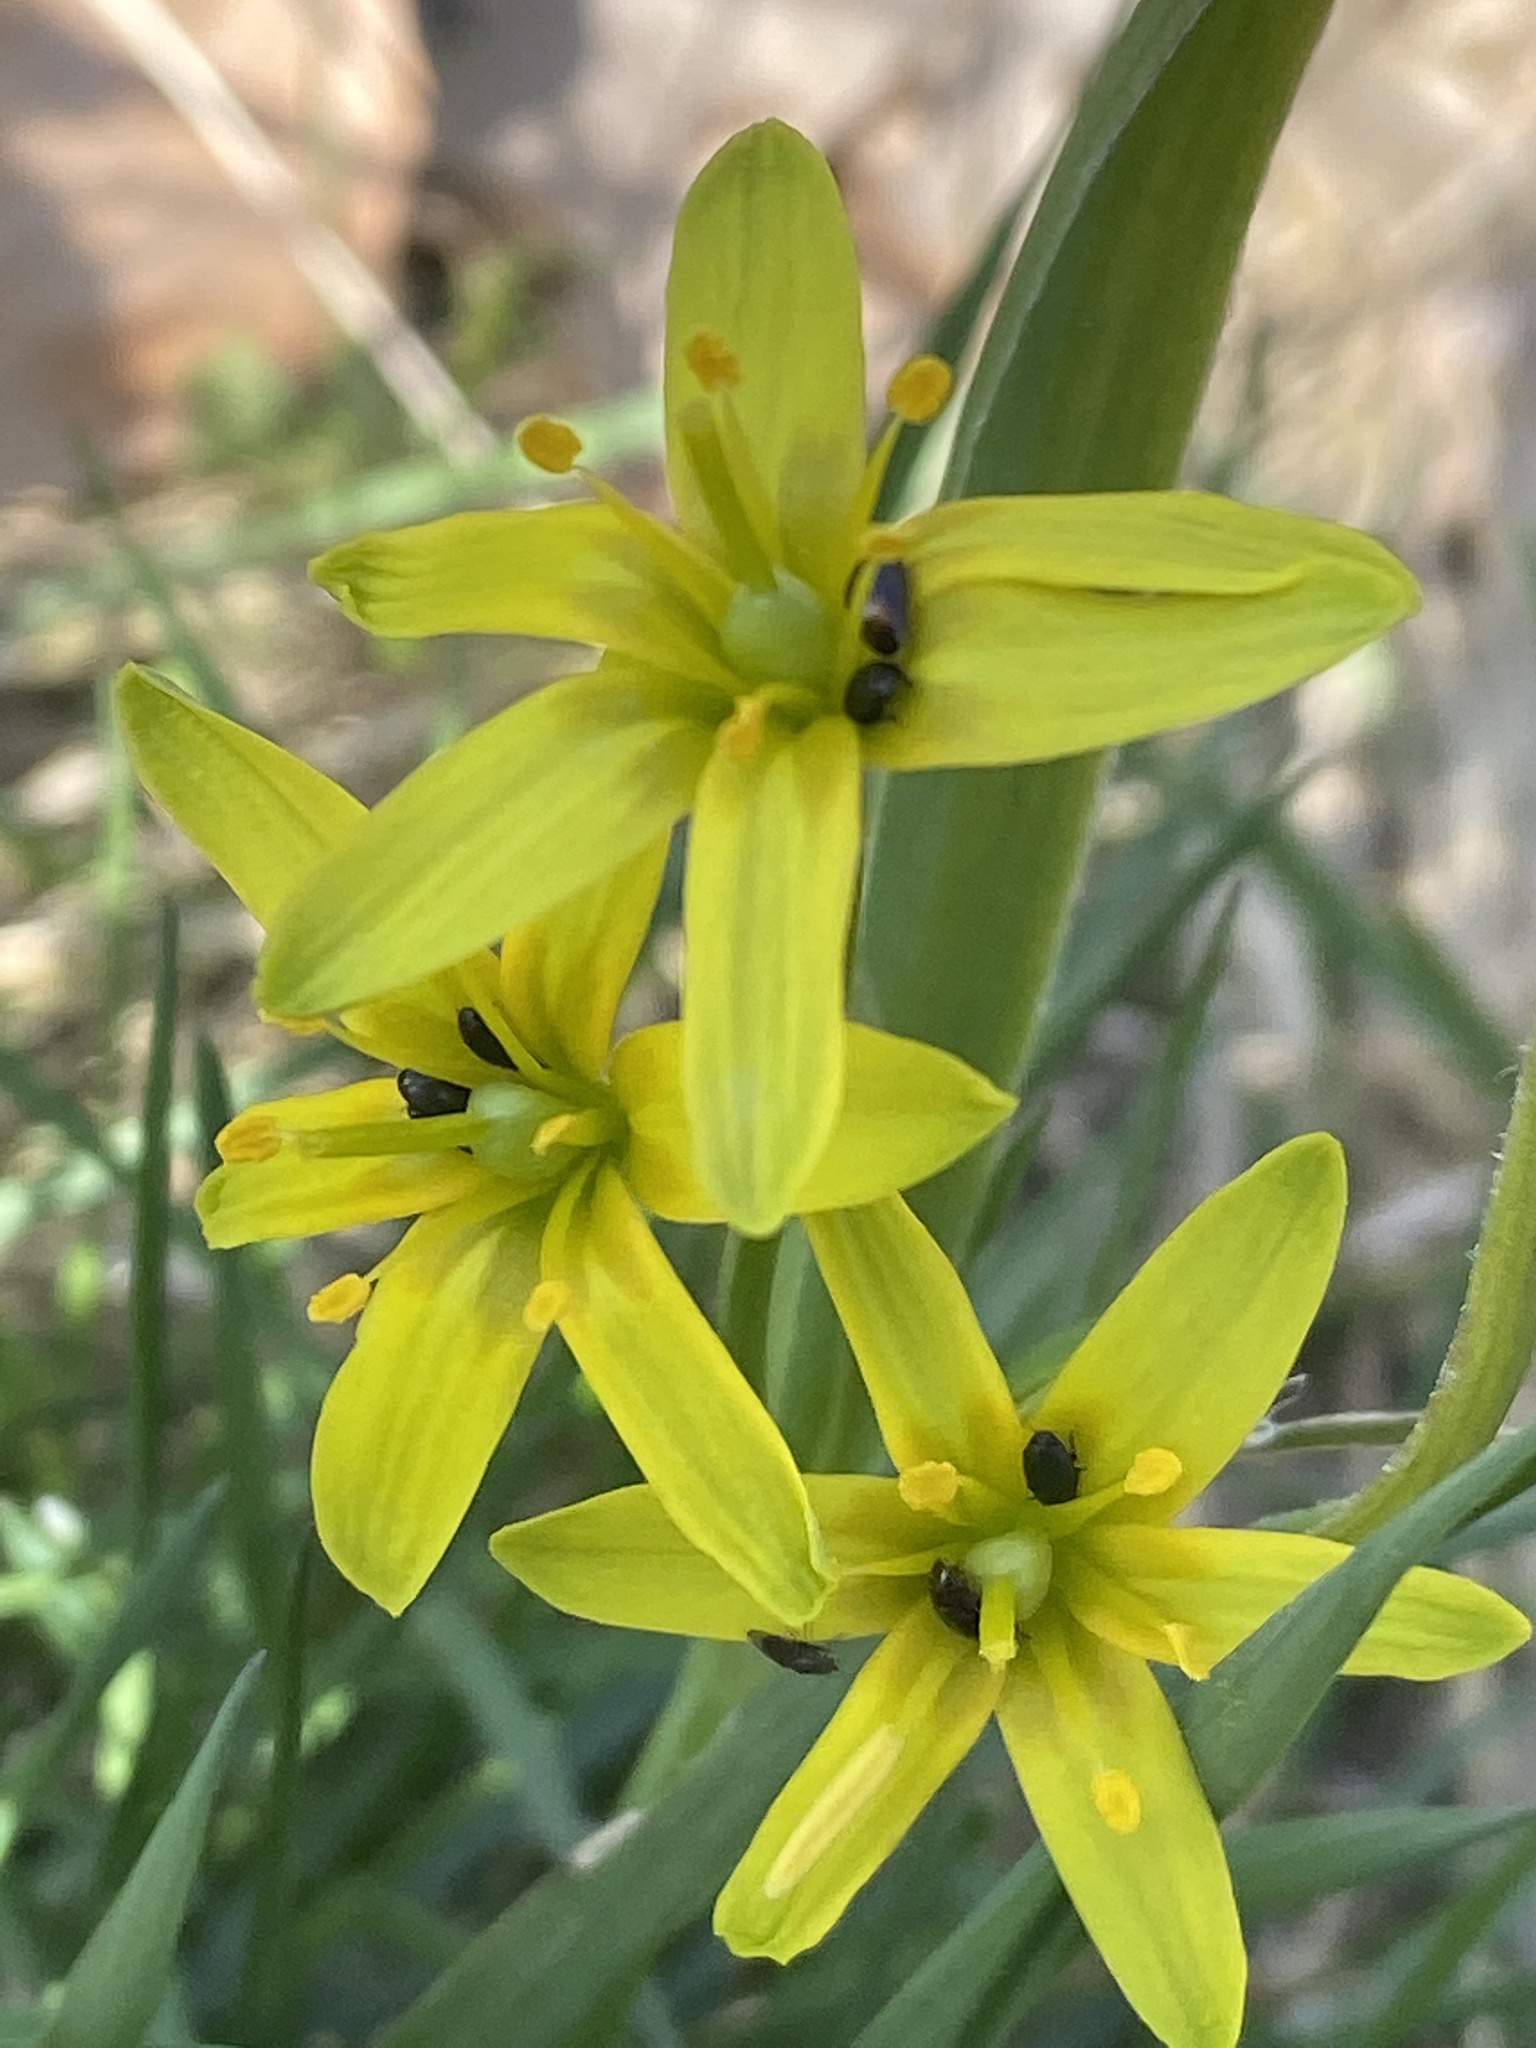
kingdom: Plantae
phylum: Tracheophyta
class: Liliopsida
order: Liliales
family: Liliaceae
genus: Gagea
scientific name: Gagea lutea
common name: Yellow star-of-bethlehem
